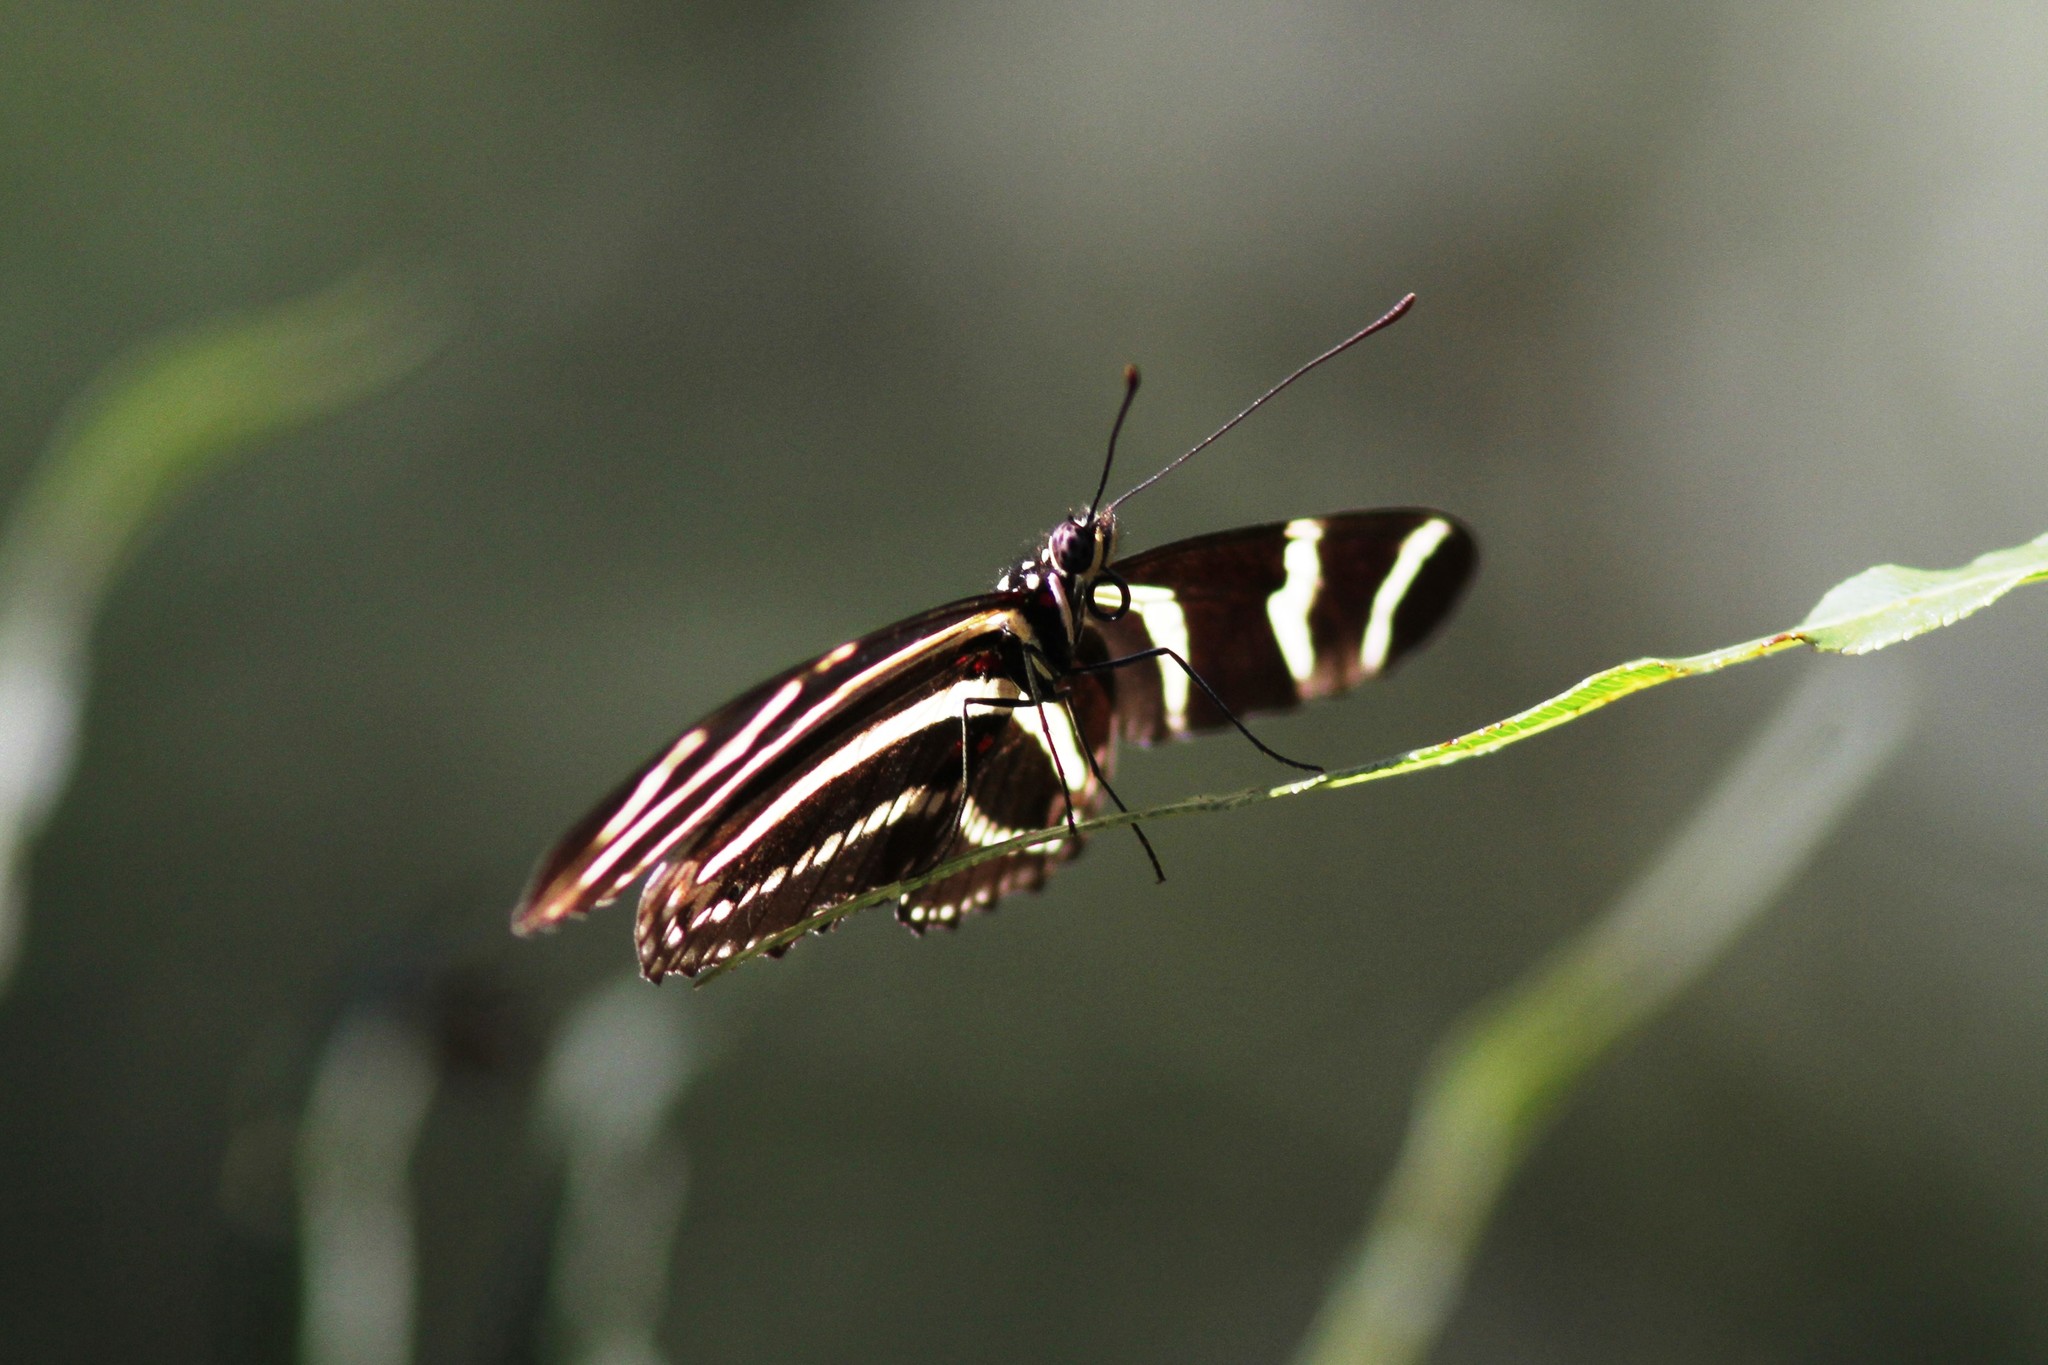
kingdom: Animalia
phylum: Arthropoda
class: Insecta
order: Lepidoptera
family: Nymphalidae
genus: Heliconius
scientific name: Heliconius charithonia
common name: Zebra long wing
